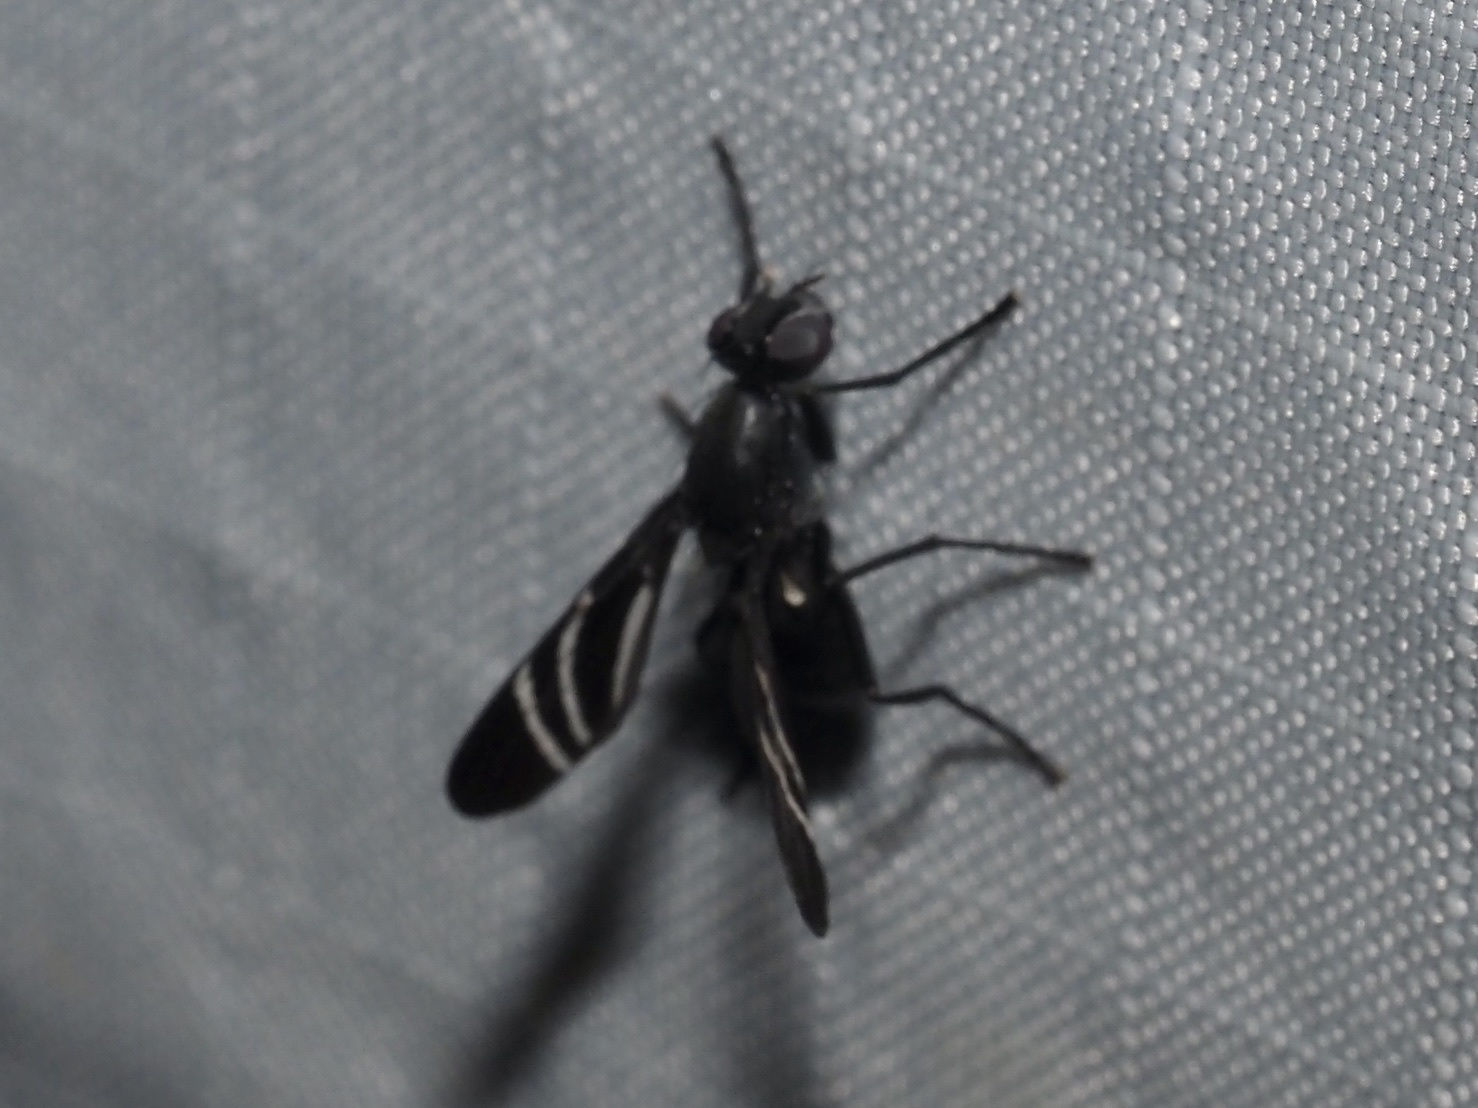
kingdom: Animalia
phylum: Arthropoda
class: Insecta
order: Diptera
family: Ulidiidae
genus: Tritoxa
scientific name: Tritoxa flexa
